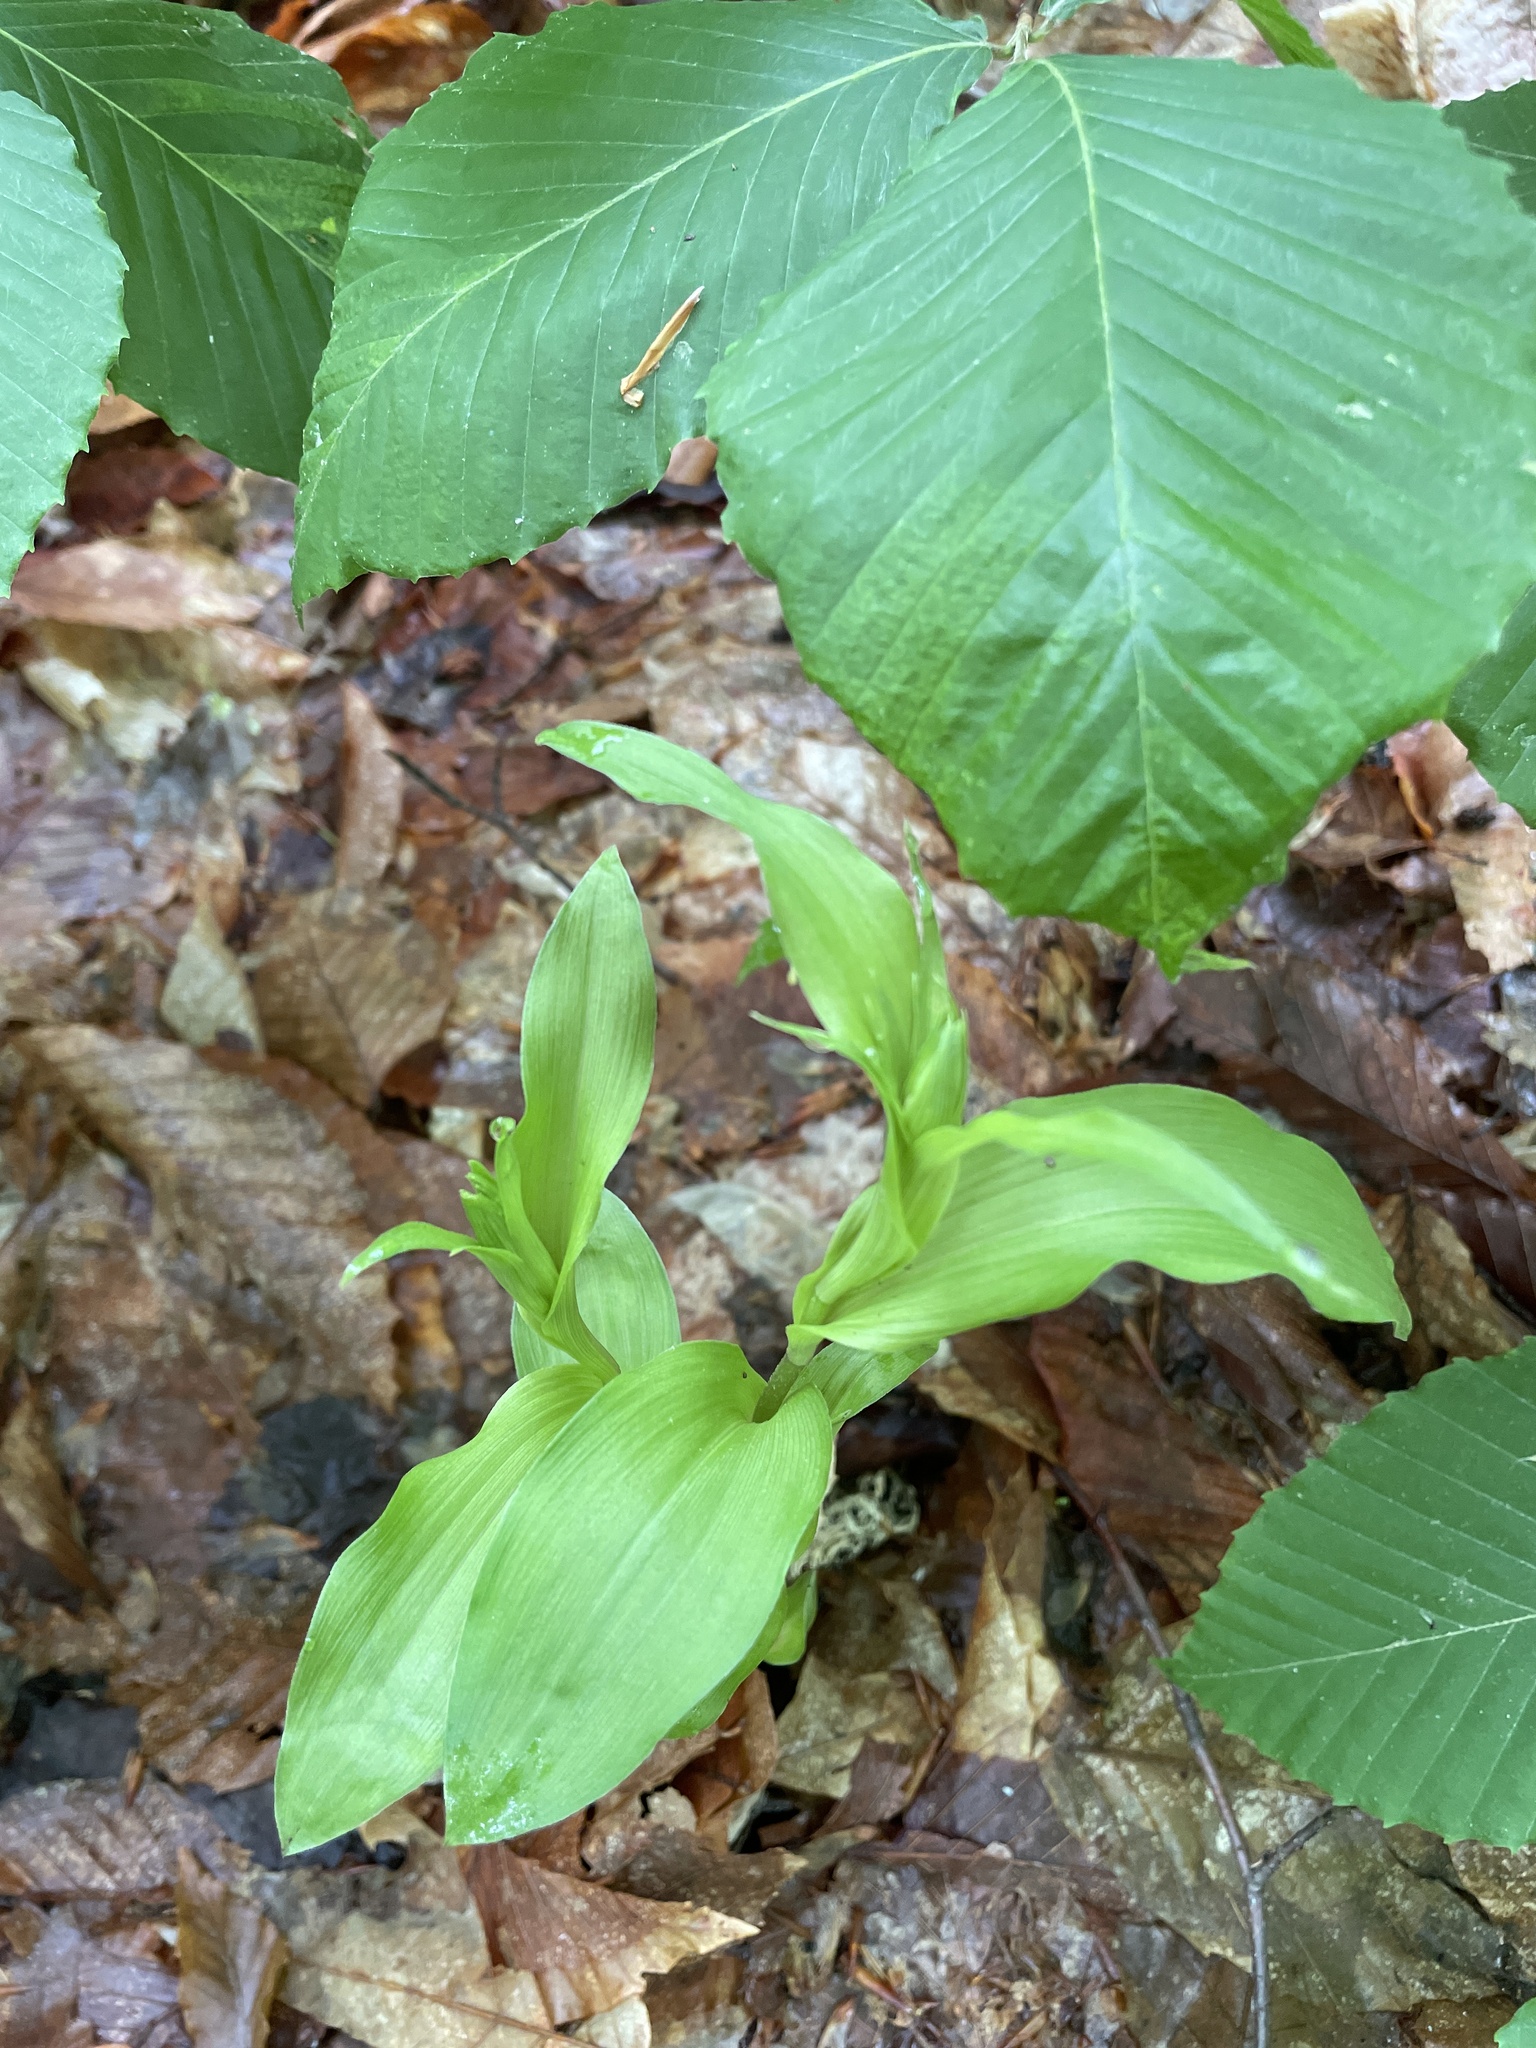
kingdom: Plantae
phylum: Tracheophyta
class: Liliopsida
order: Asparagales
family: Orchidaceae
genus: Epipactis
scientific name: Epipactis helleborine
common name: Broad-leaved helleborine
